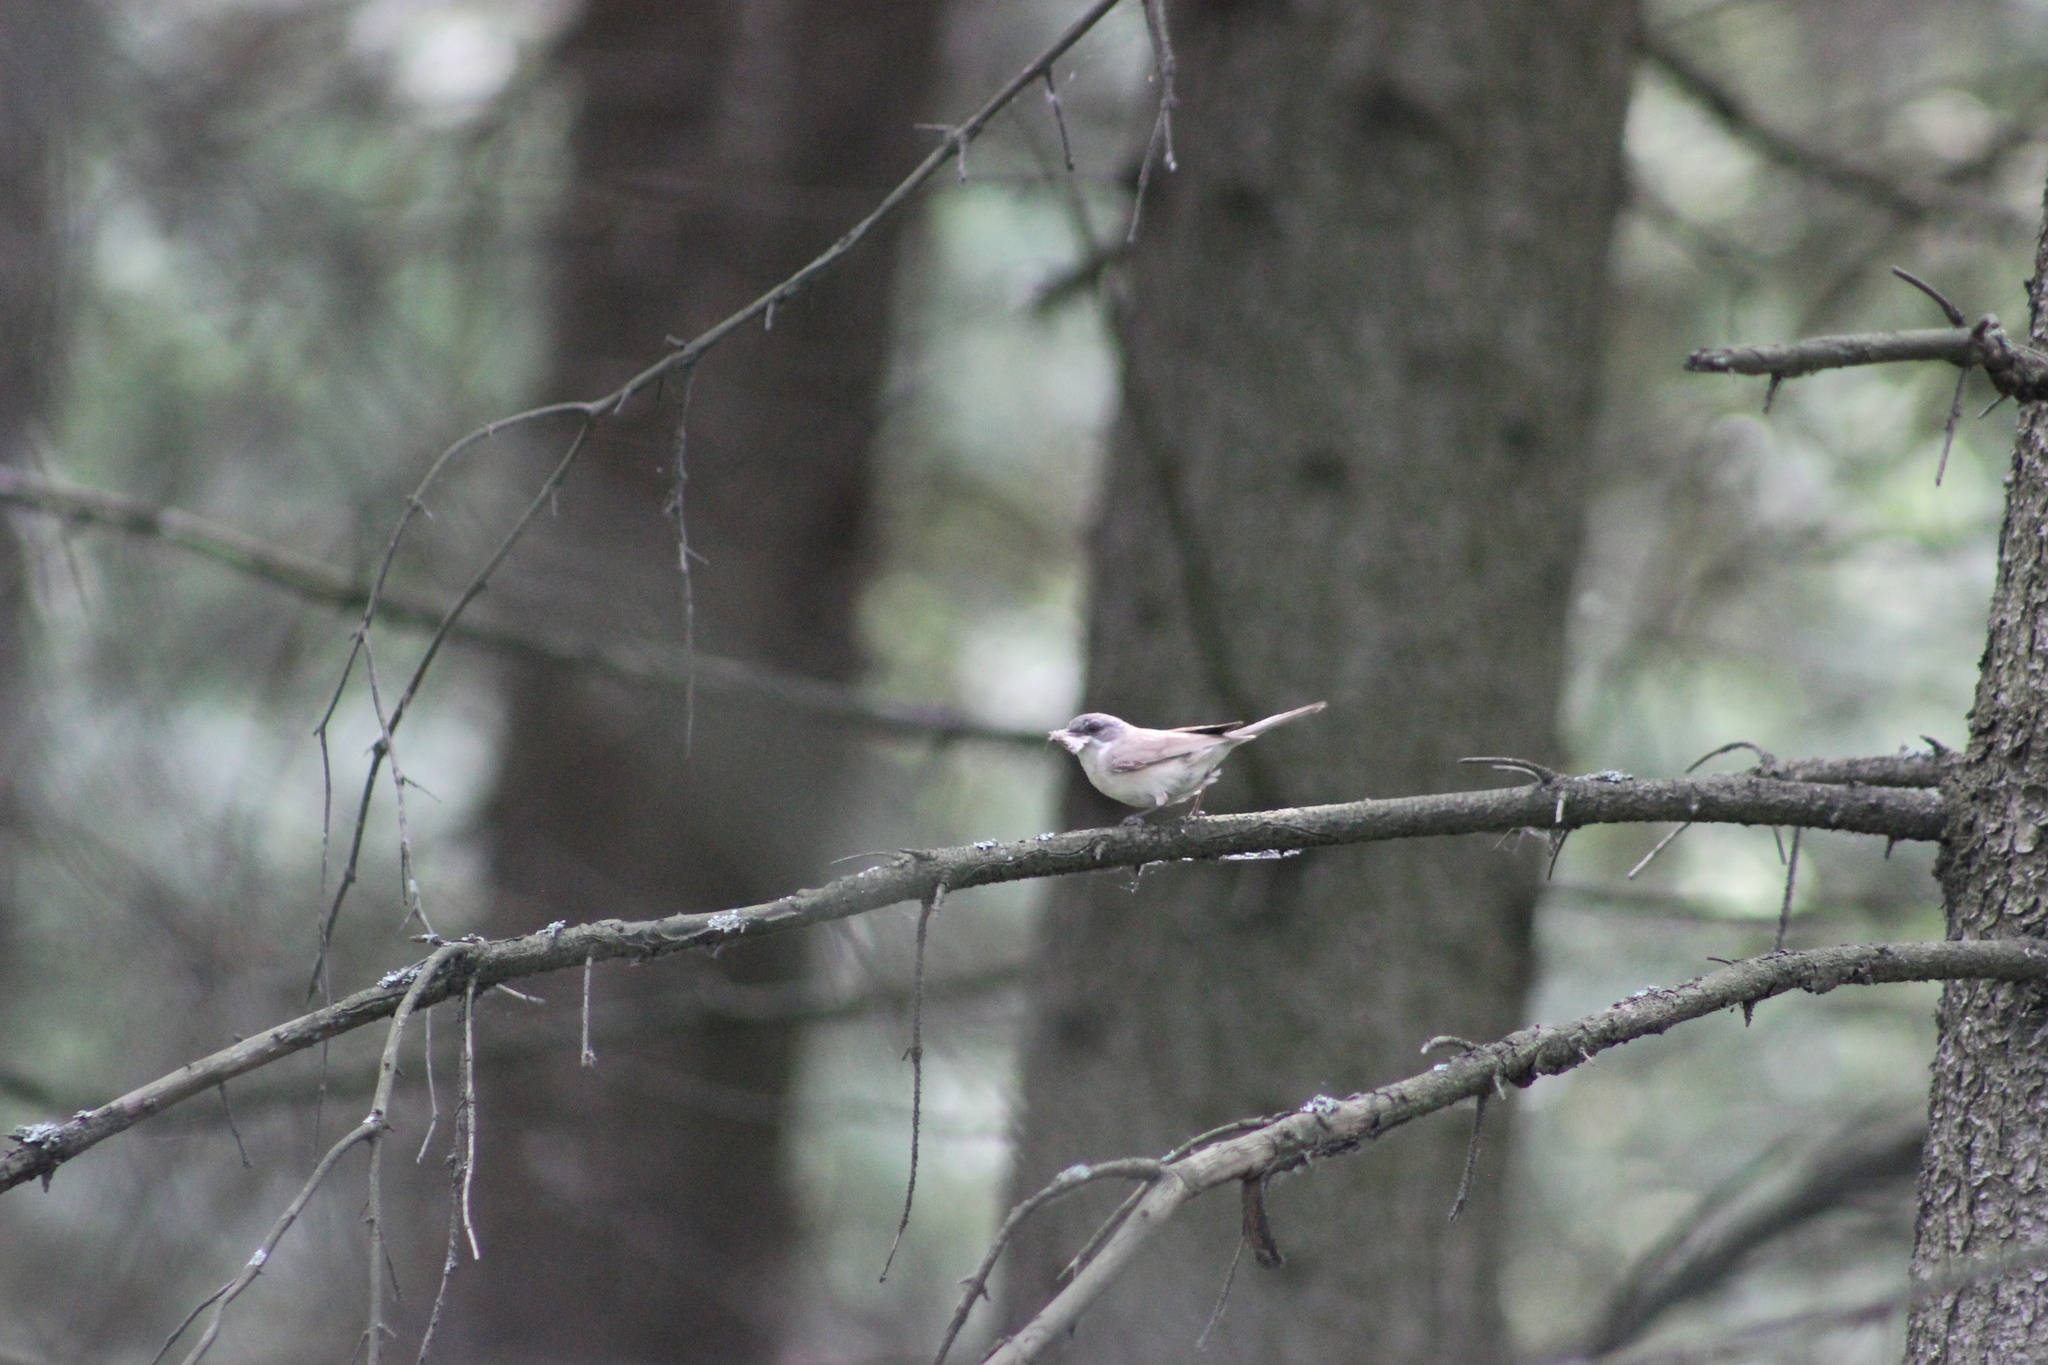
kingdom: Animalia
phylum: Chordata
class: Aves
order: Passeriformes
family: Sylviidae
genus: Sylvia
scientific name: Sylvia curruca
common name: Lesser whitethroat
